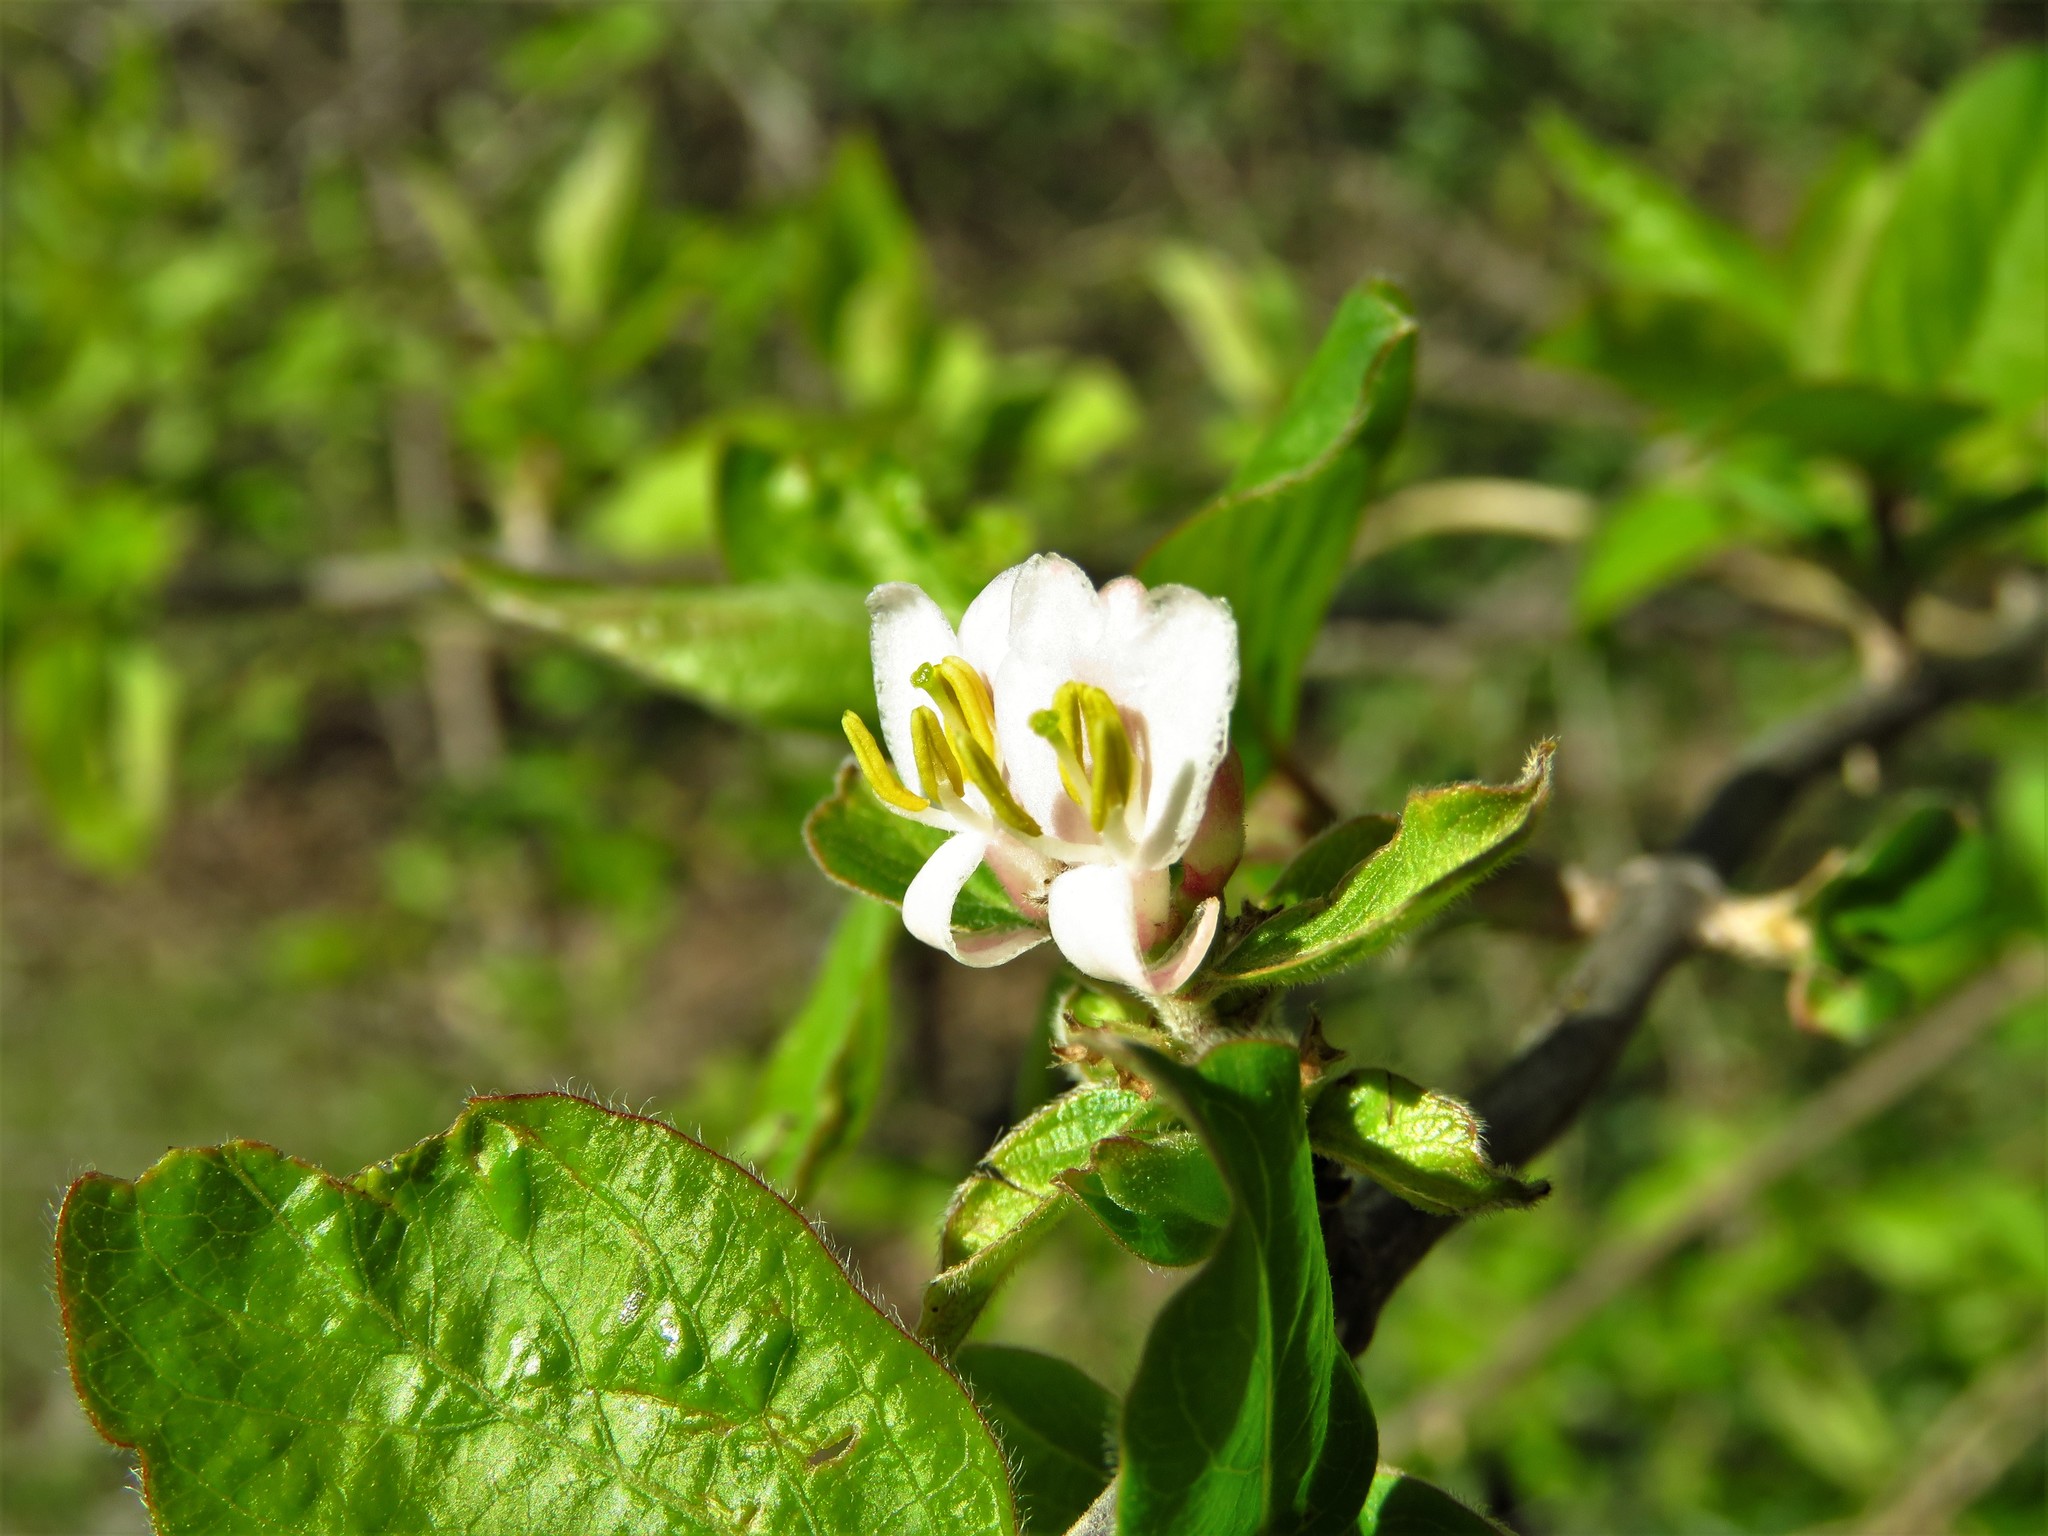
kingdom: Plantae
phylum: Tracheophyta
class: Magnoliopsida
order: Dipsacales
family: Caprifoliaceae
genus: Lonicera
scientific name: Lonicera fragrantissima
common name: Fragrant honeysuckle
